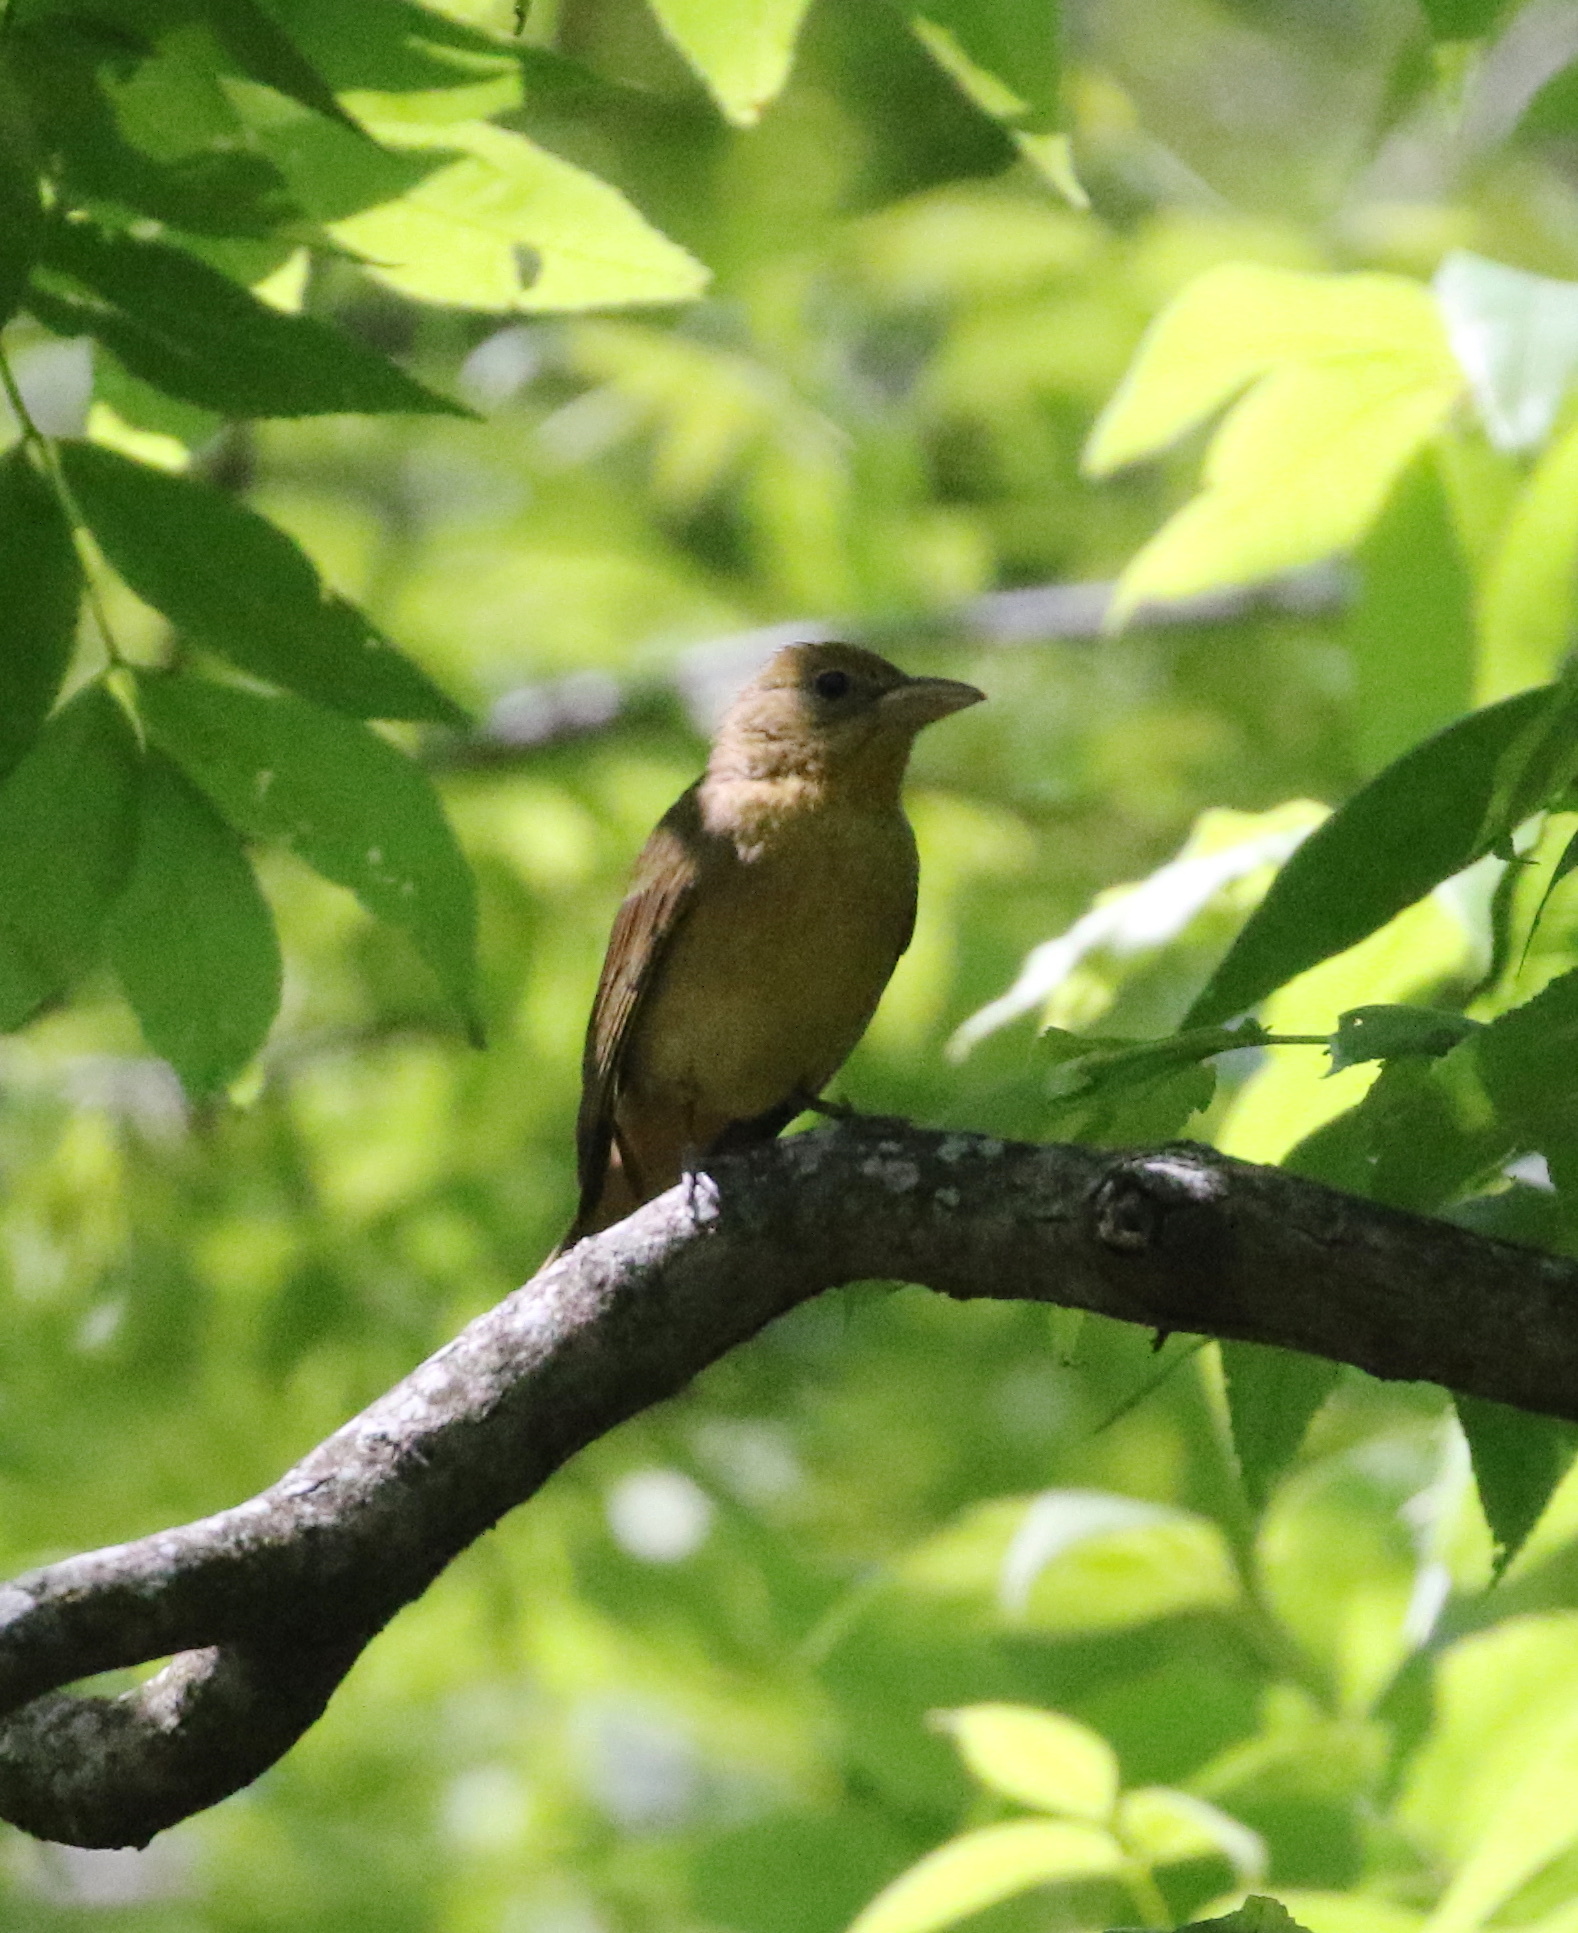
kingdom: Animalia
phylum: Chordata
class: Aves
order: Passeriformes
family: Cardinalidae
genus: Piranga
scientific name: Piranga rubra
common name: Summer tanager
